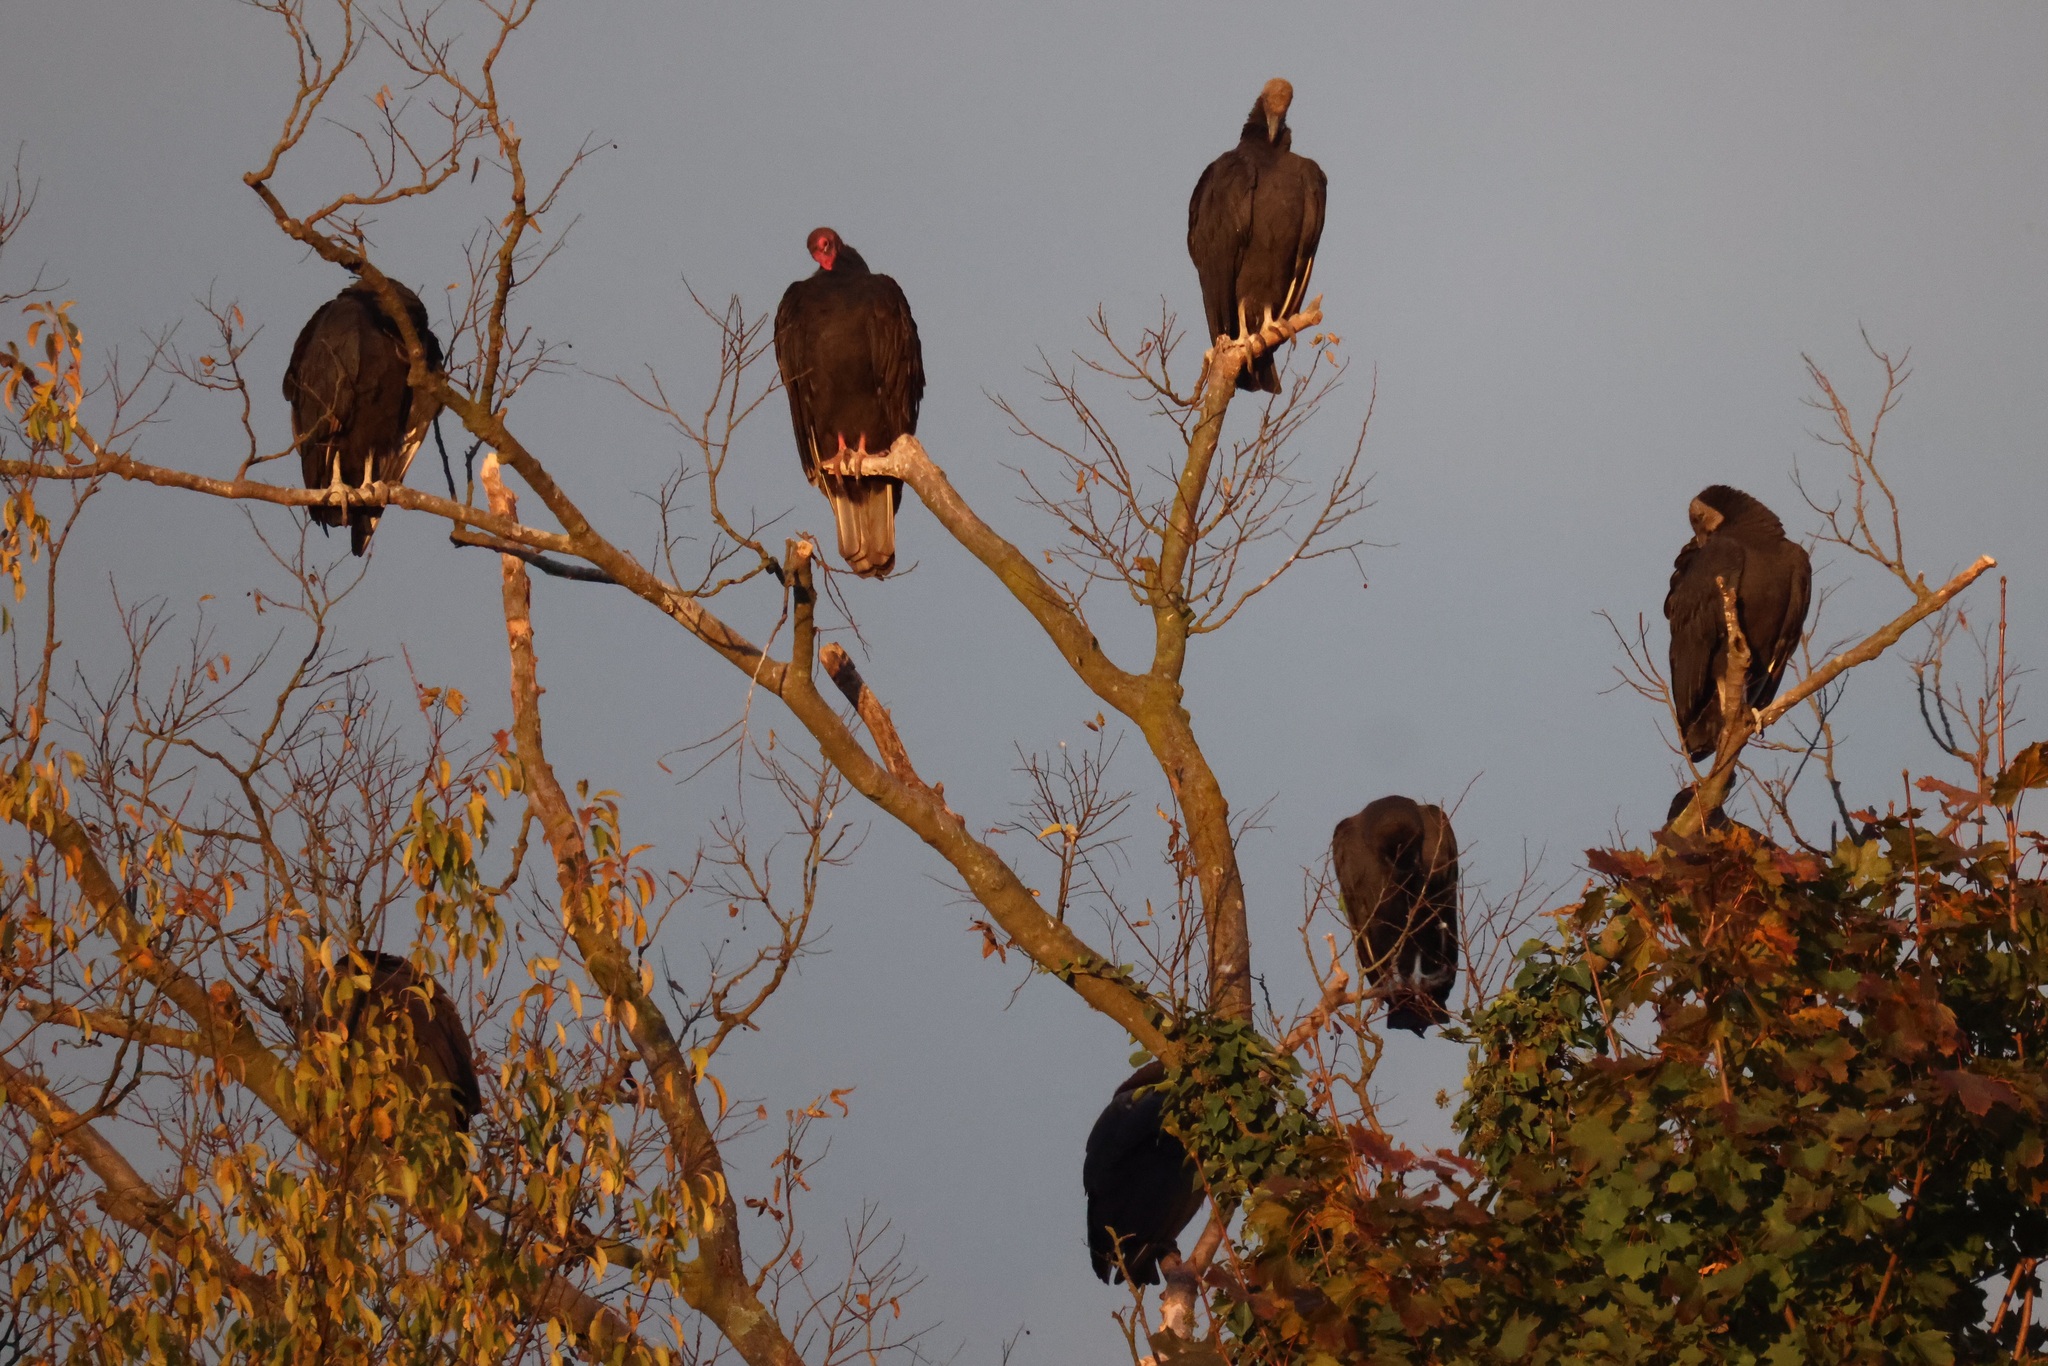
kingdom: Animalia
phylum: Chordata
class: Aves
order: Accipitriformes
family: Cathartidae
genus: Cathartes
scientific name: Cathartes aura
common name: Turkey vulture
